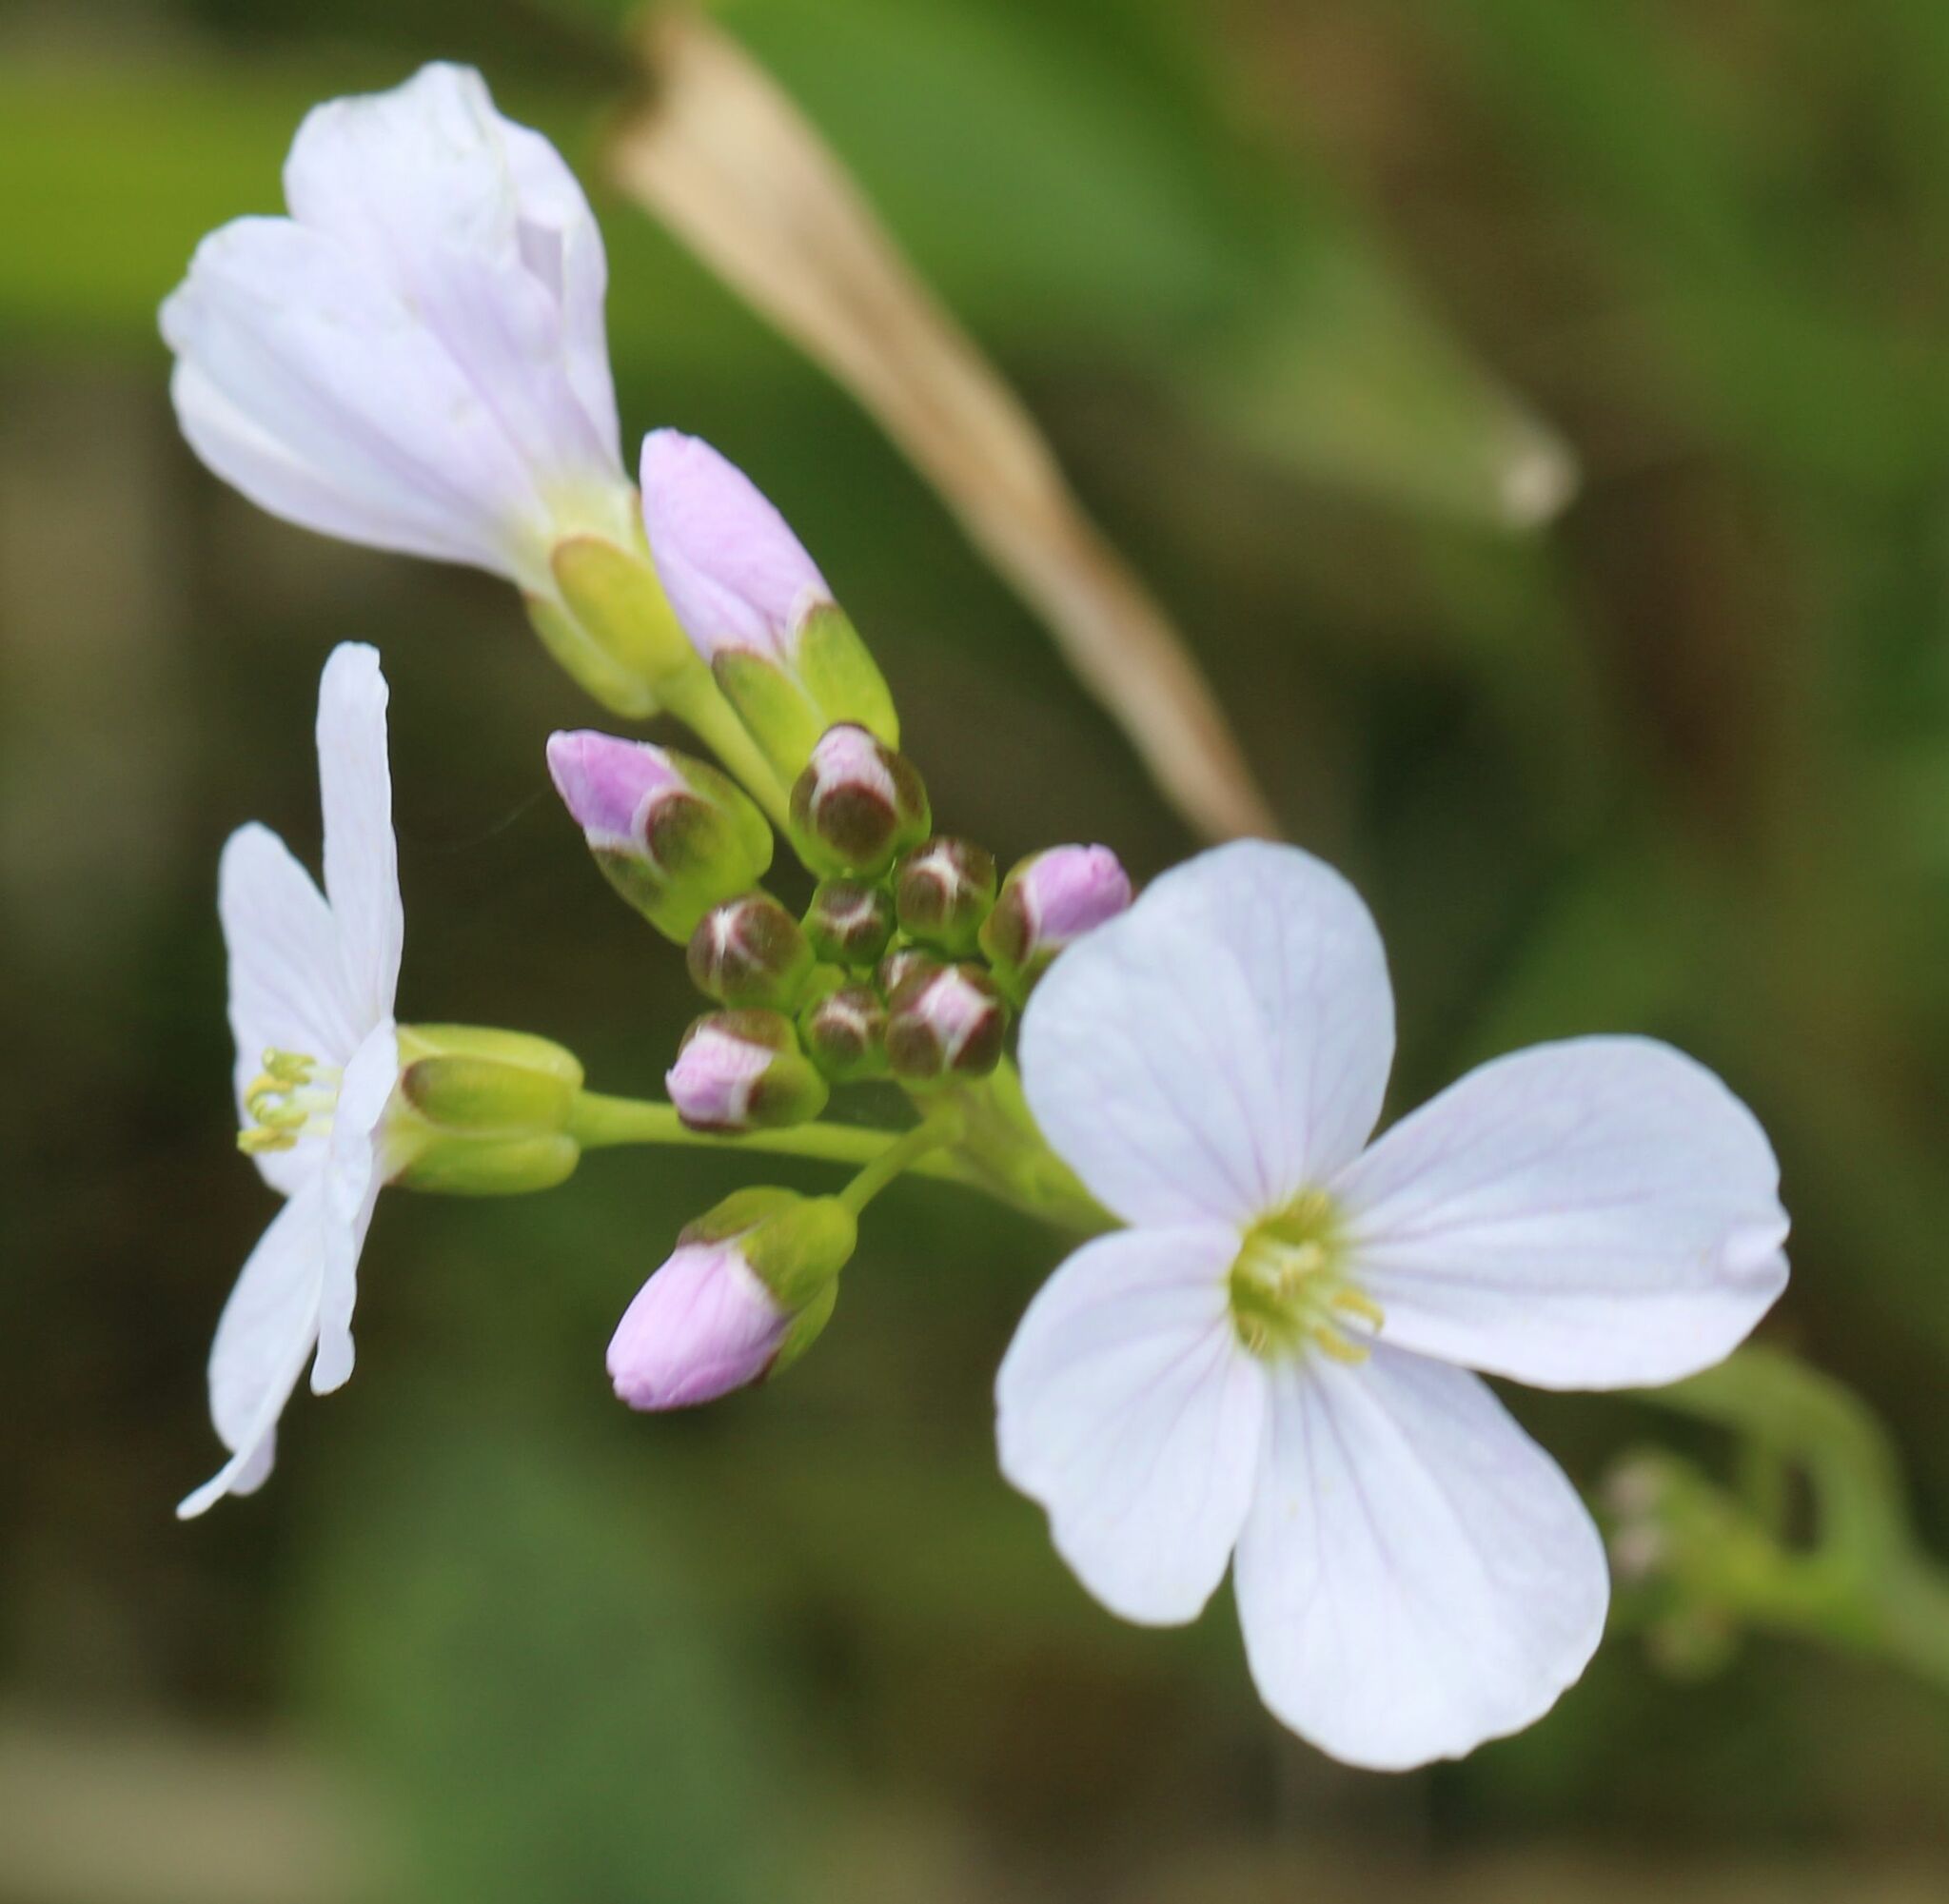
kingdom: Plantae
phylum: Tracheophyta
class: Magnoliopsida
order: Brassicales
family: Brassicaceae
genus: Cardamine
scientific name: Cardamine pratensis
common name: Cuckoo flower
